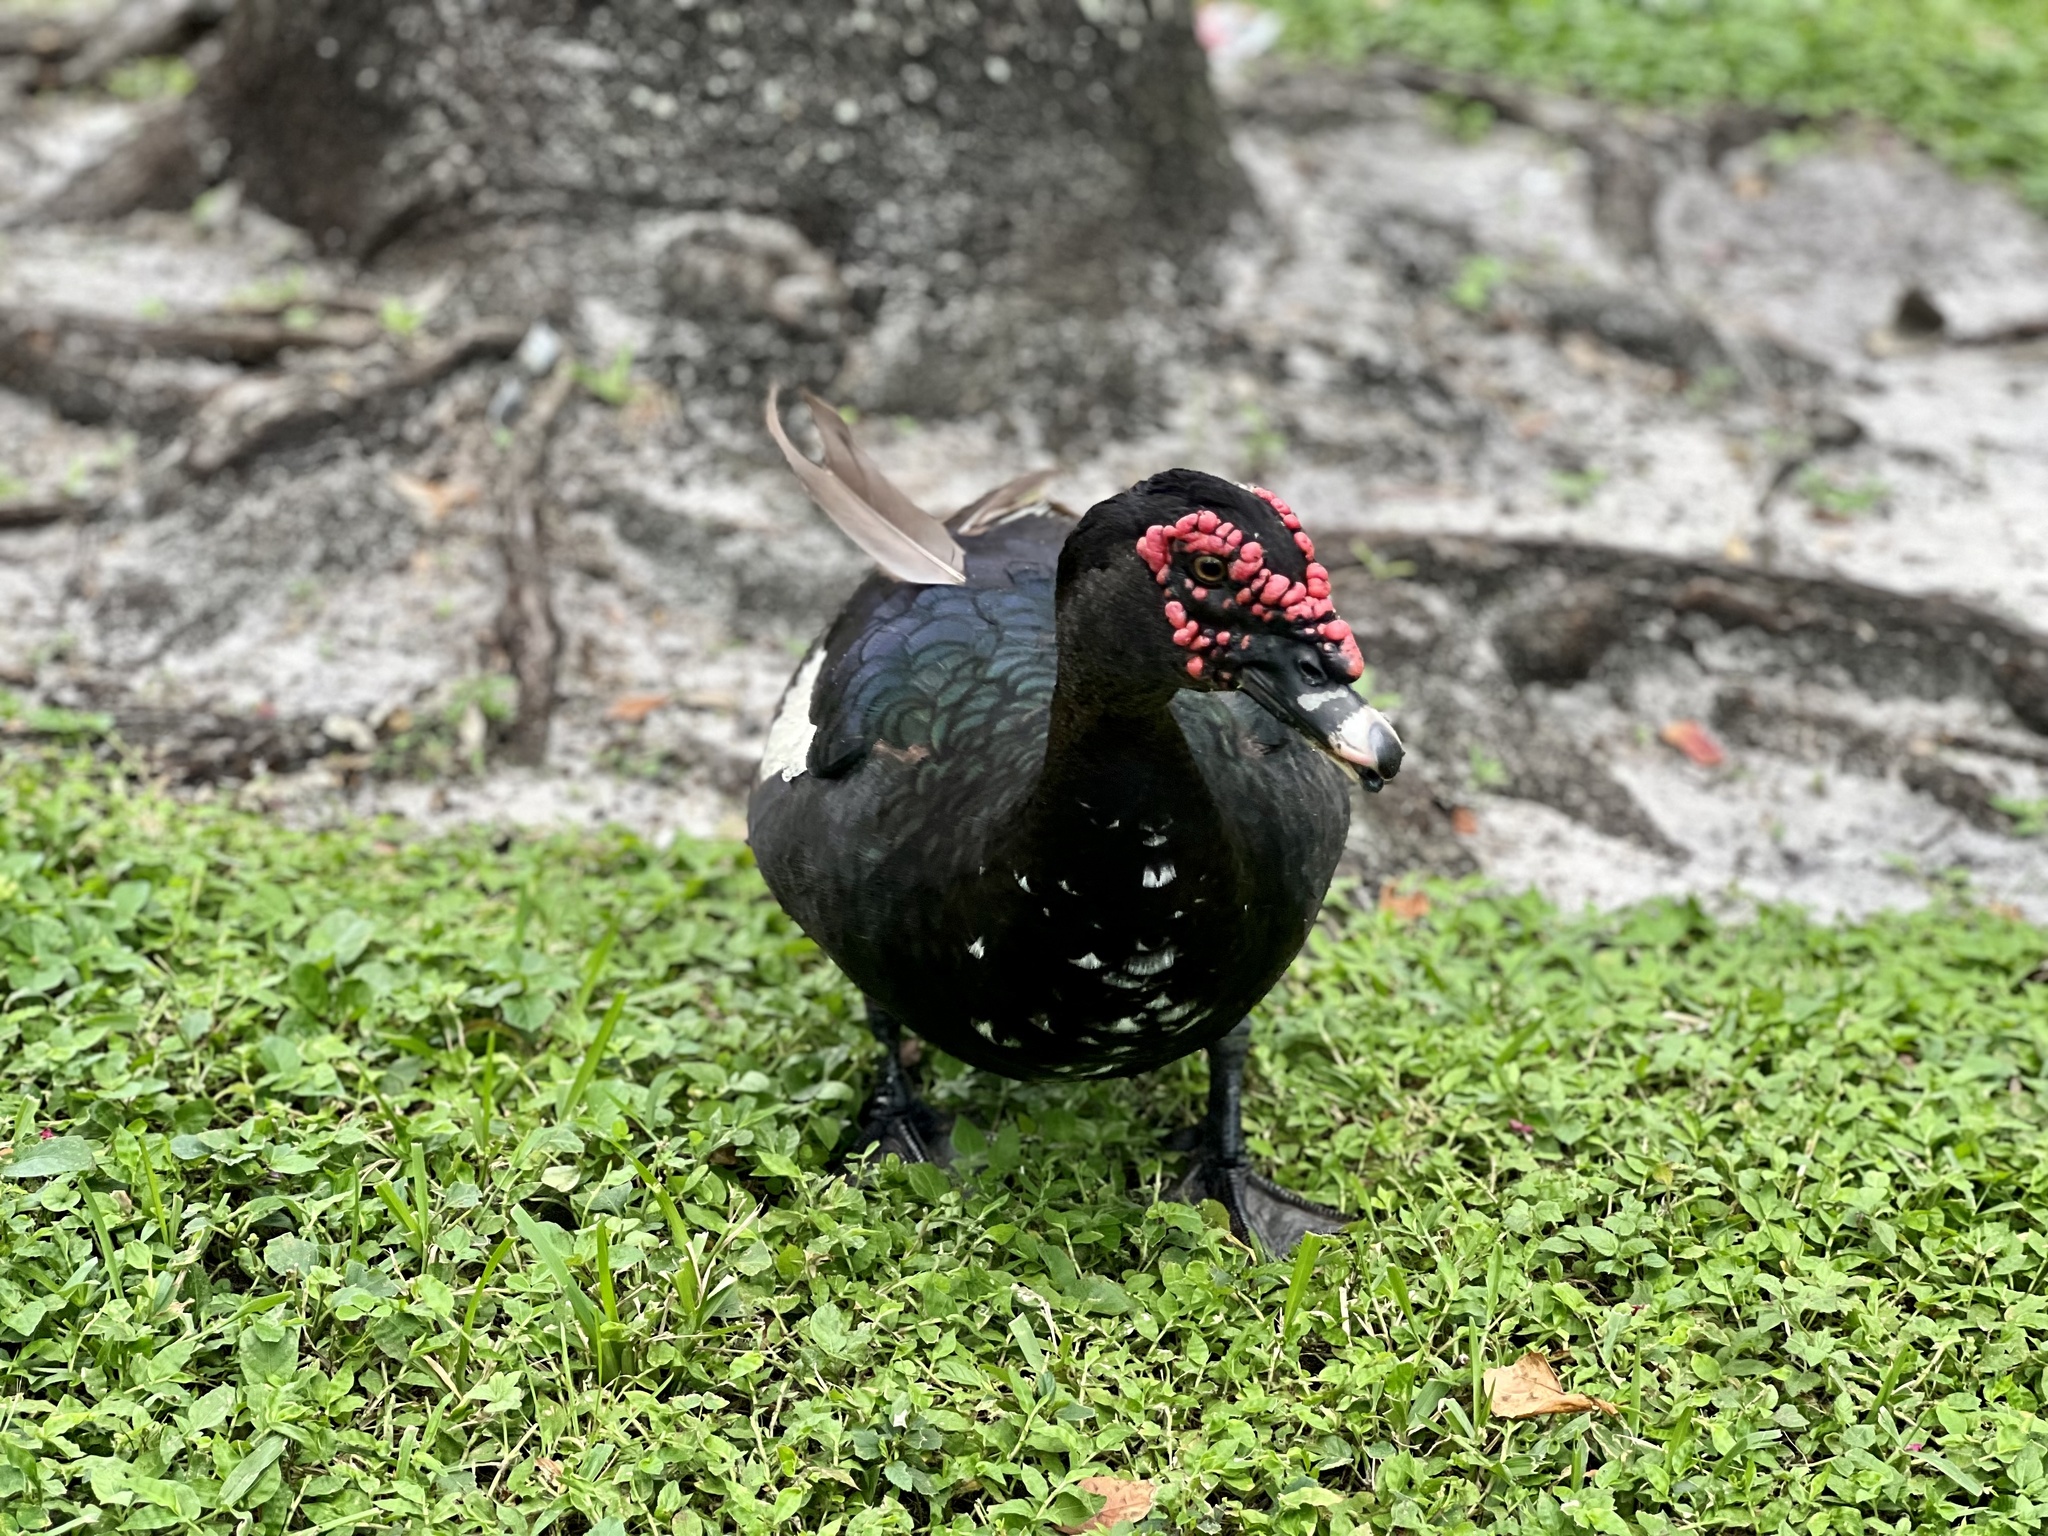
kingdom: Animalia
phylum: Chordata
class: Aves
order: Anseriformes
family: Anatidae
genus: Cairina
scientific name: Cairina moschata
